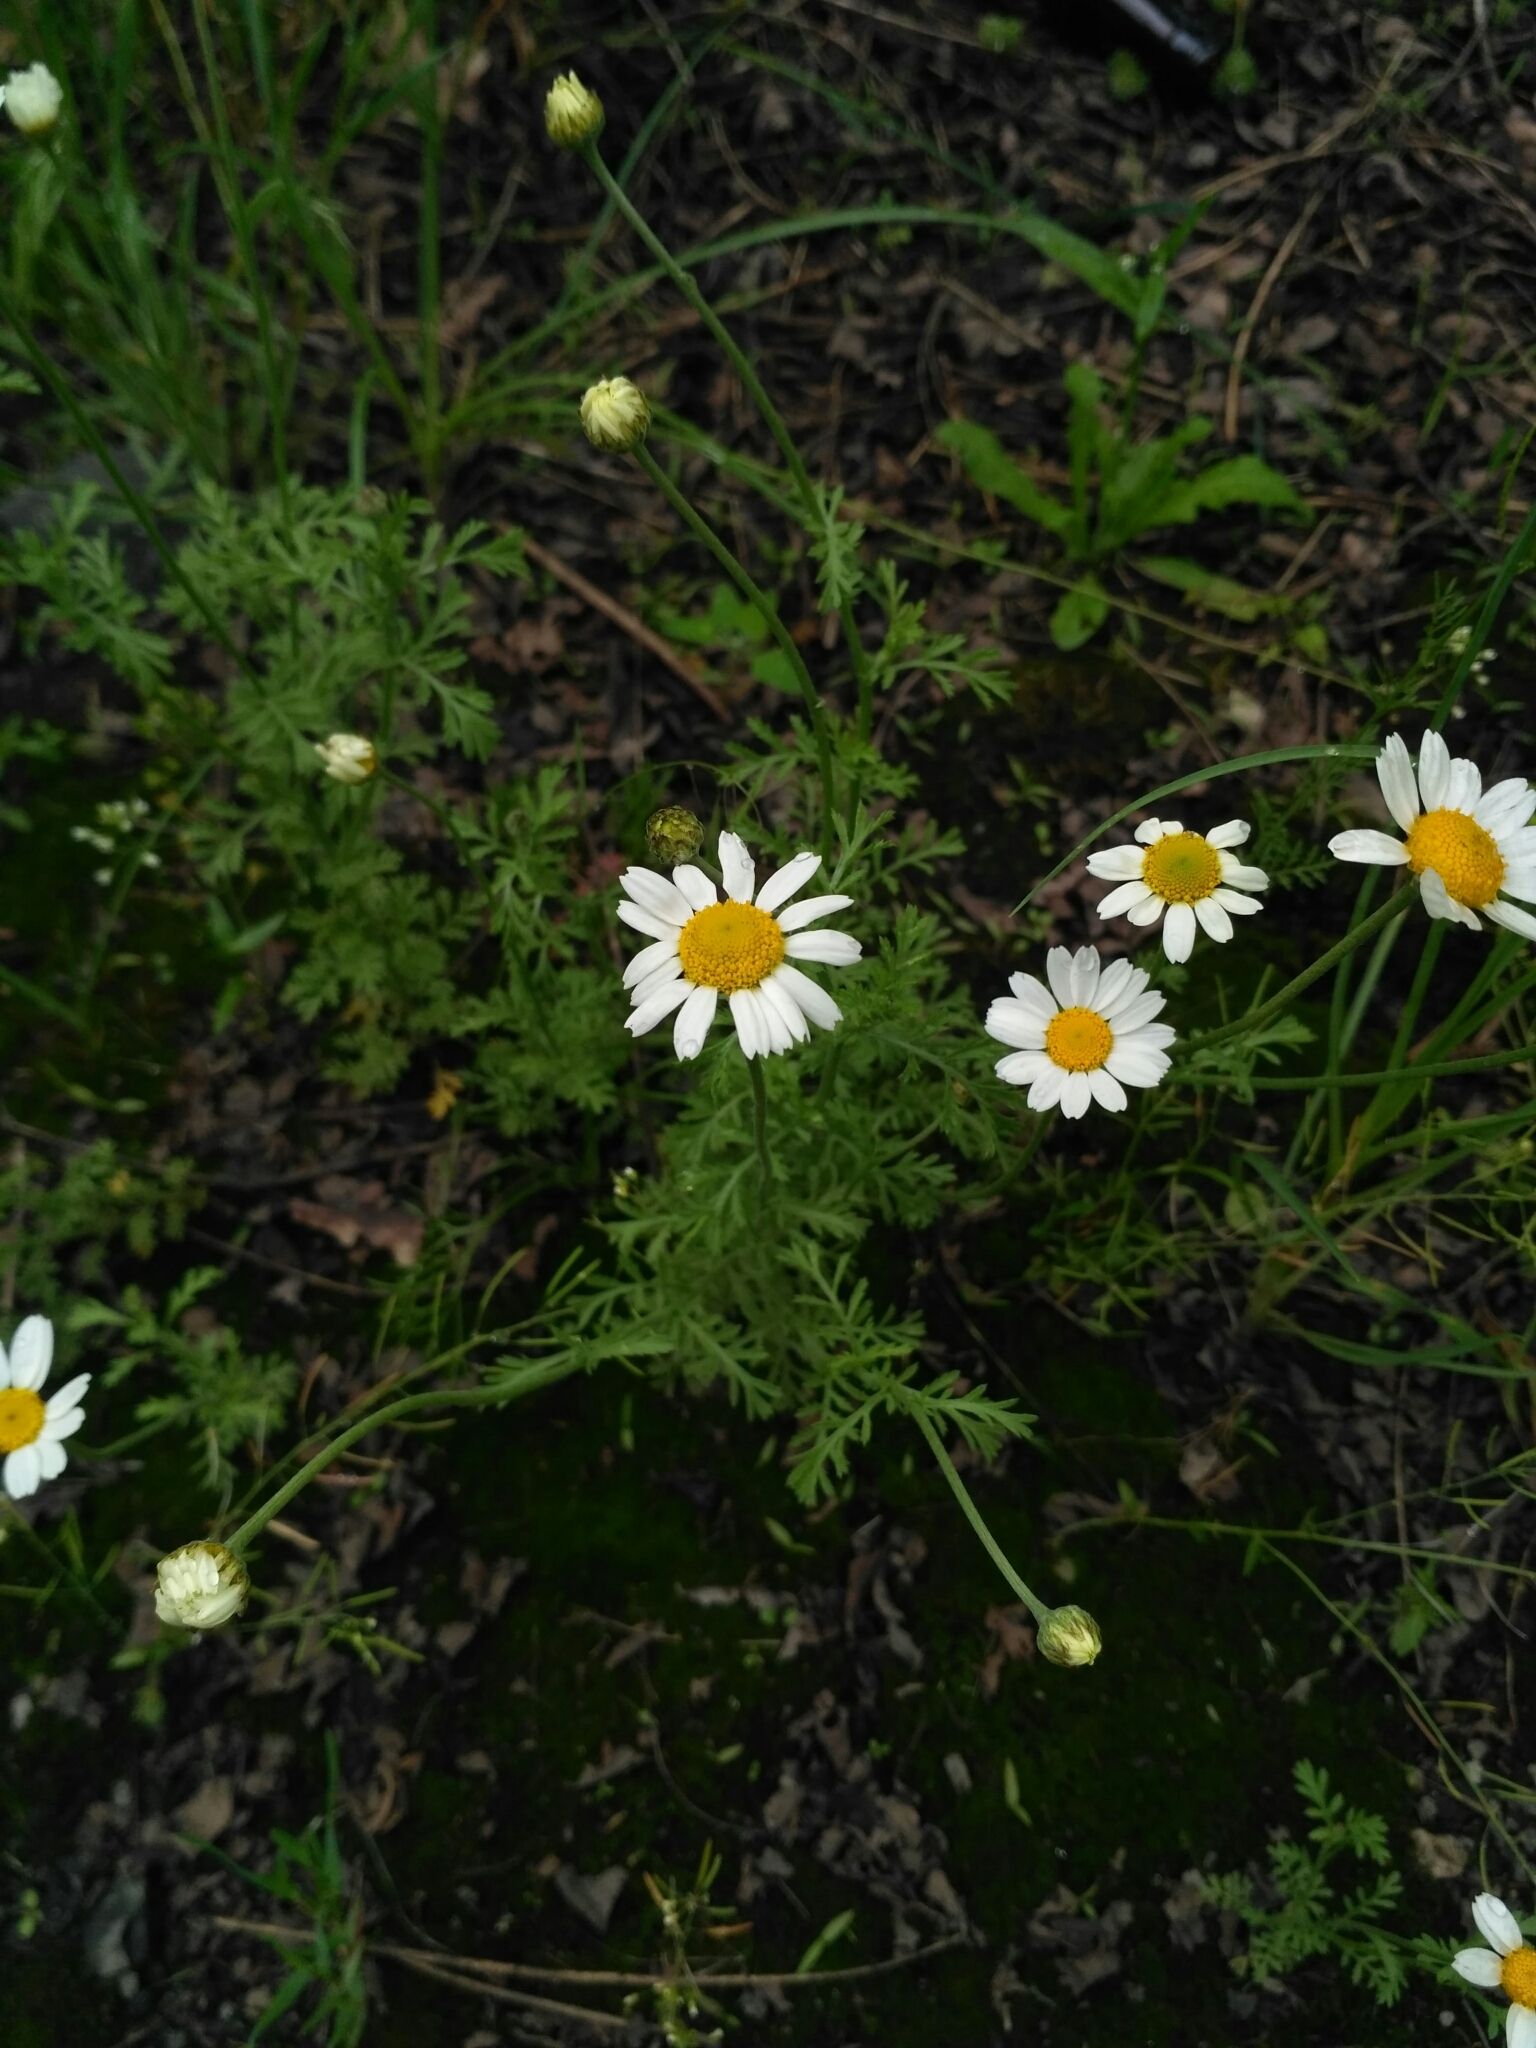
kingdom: Plantae
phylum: Tracheophyta
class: Magnoliopsida
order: Asterales
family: Asteraceae
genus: Anthemis
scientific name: Anthemis arvensis
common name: Corn chamomile
